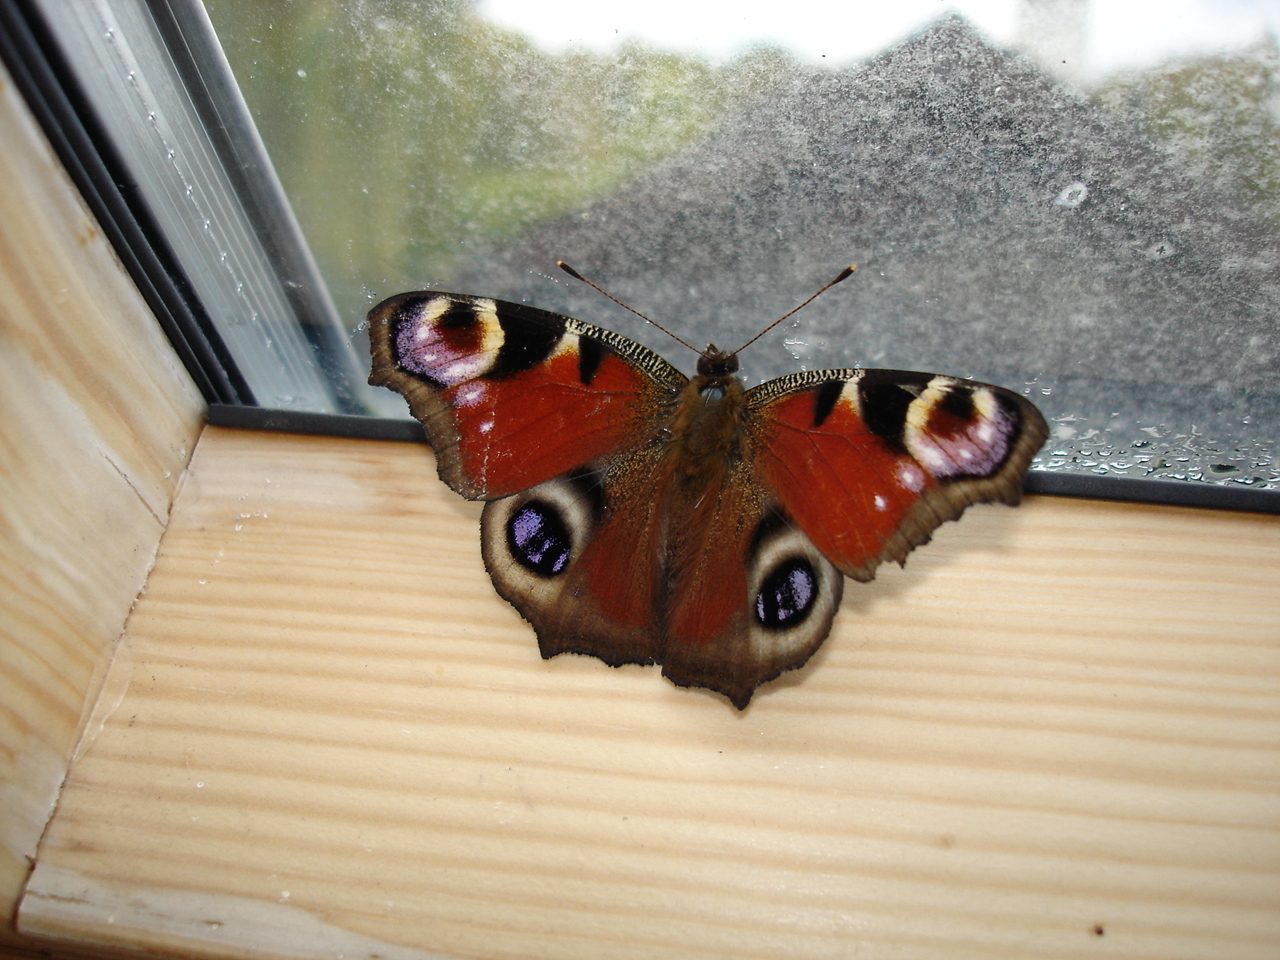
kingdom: Animalia
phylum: Arthropoda
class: Insecta
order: Lepidoptera
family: Nymphalidae
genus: Aglais
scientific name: Aglais io
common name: Peacock
